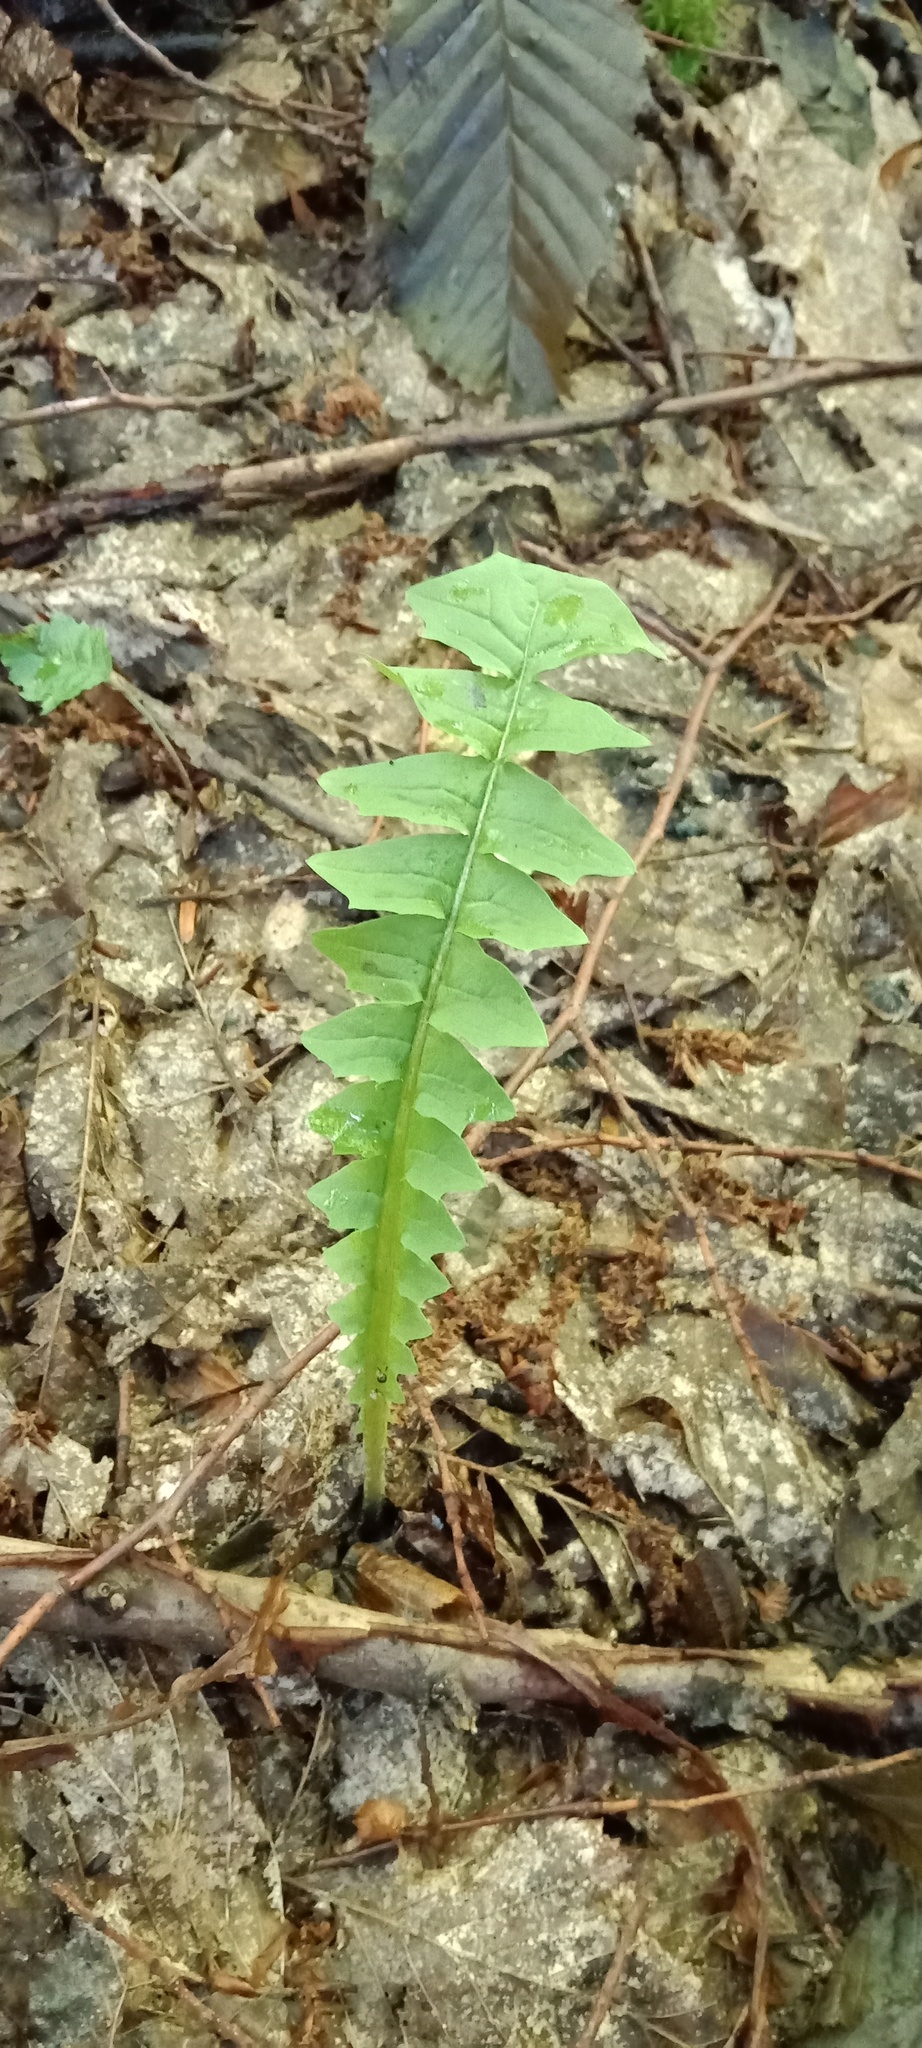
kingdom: Plantae
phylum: Tracheophyta
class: Magnoliopsida
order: Asterales
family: Asteraceae
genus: Aposeris
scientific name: Aposeris foetida
